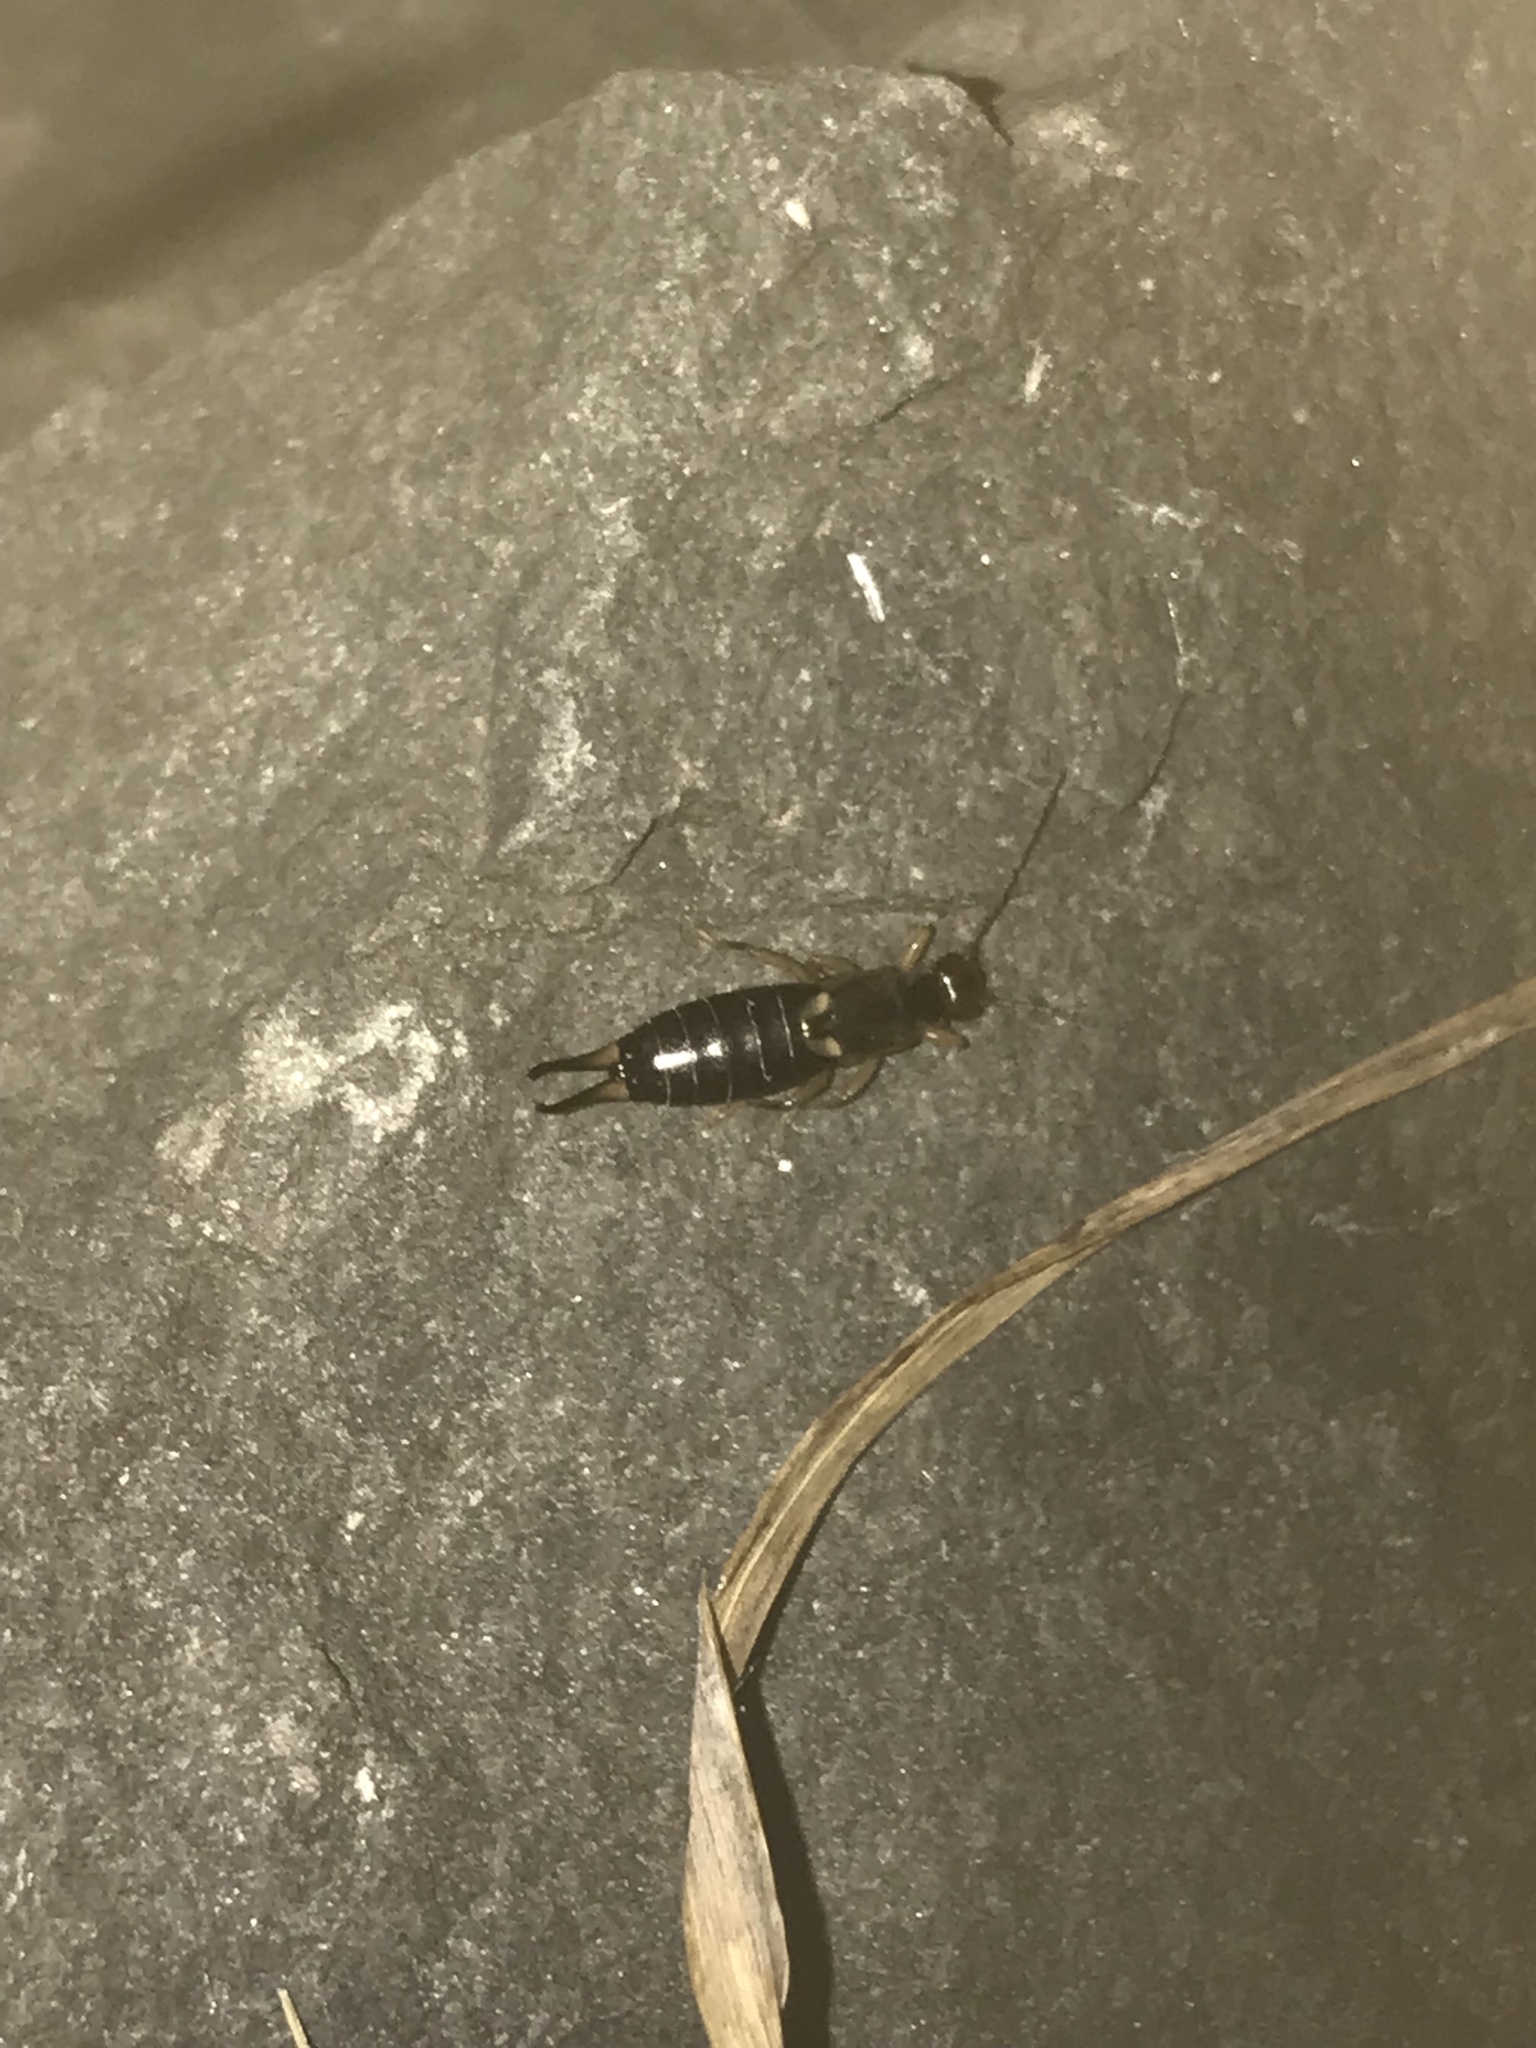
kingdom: Animalia
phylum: Arthropoda
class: Insecta
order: Dermaptera
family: Forficulidae
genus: Forficula
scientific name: Forficula
